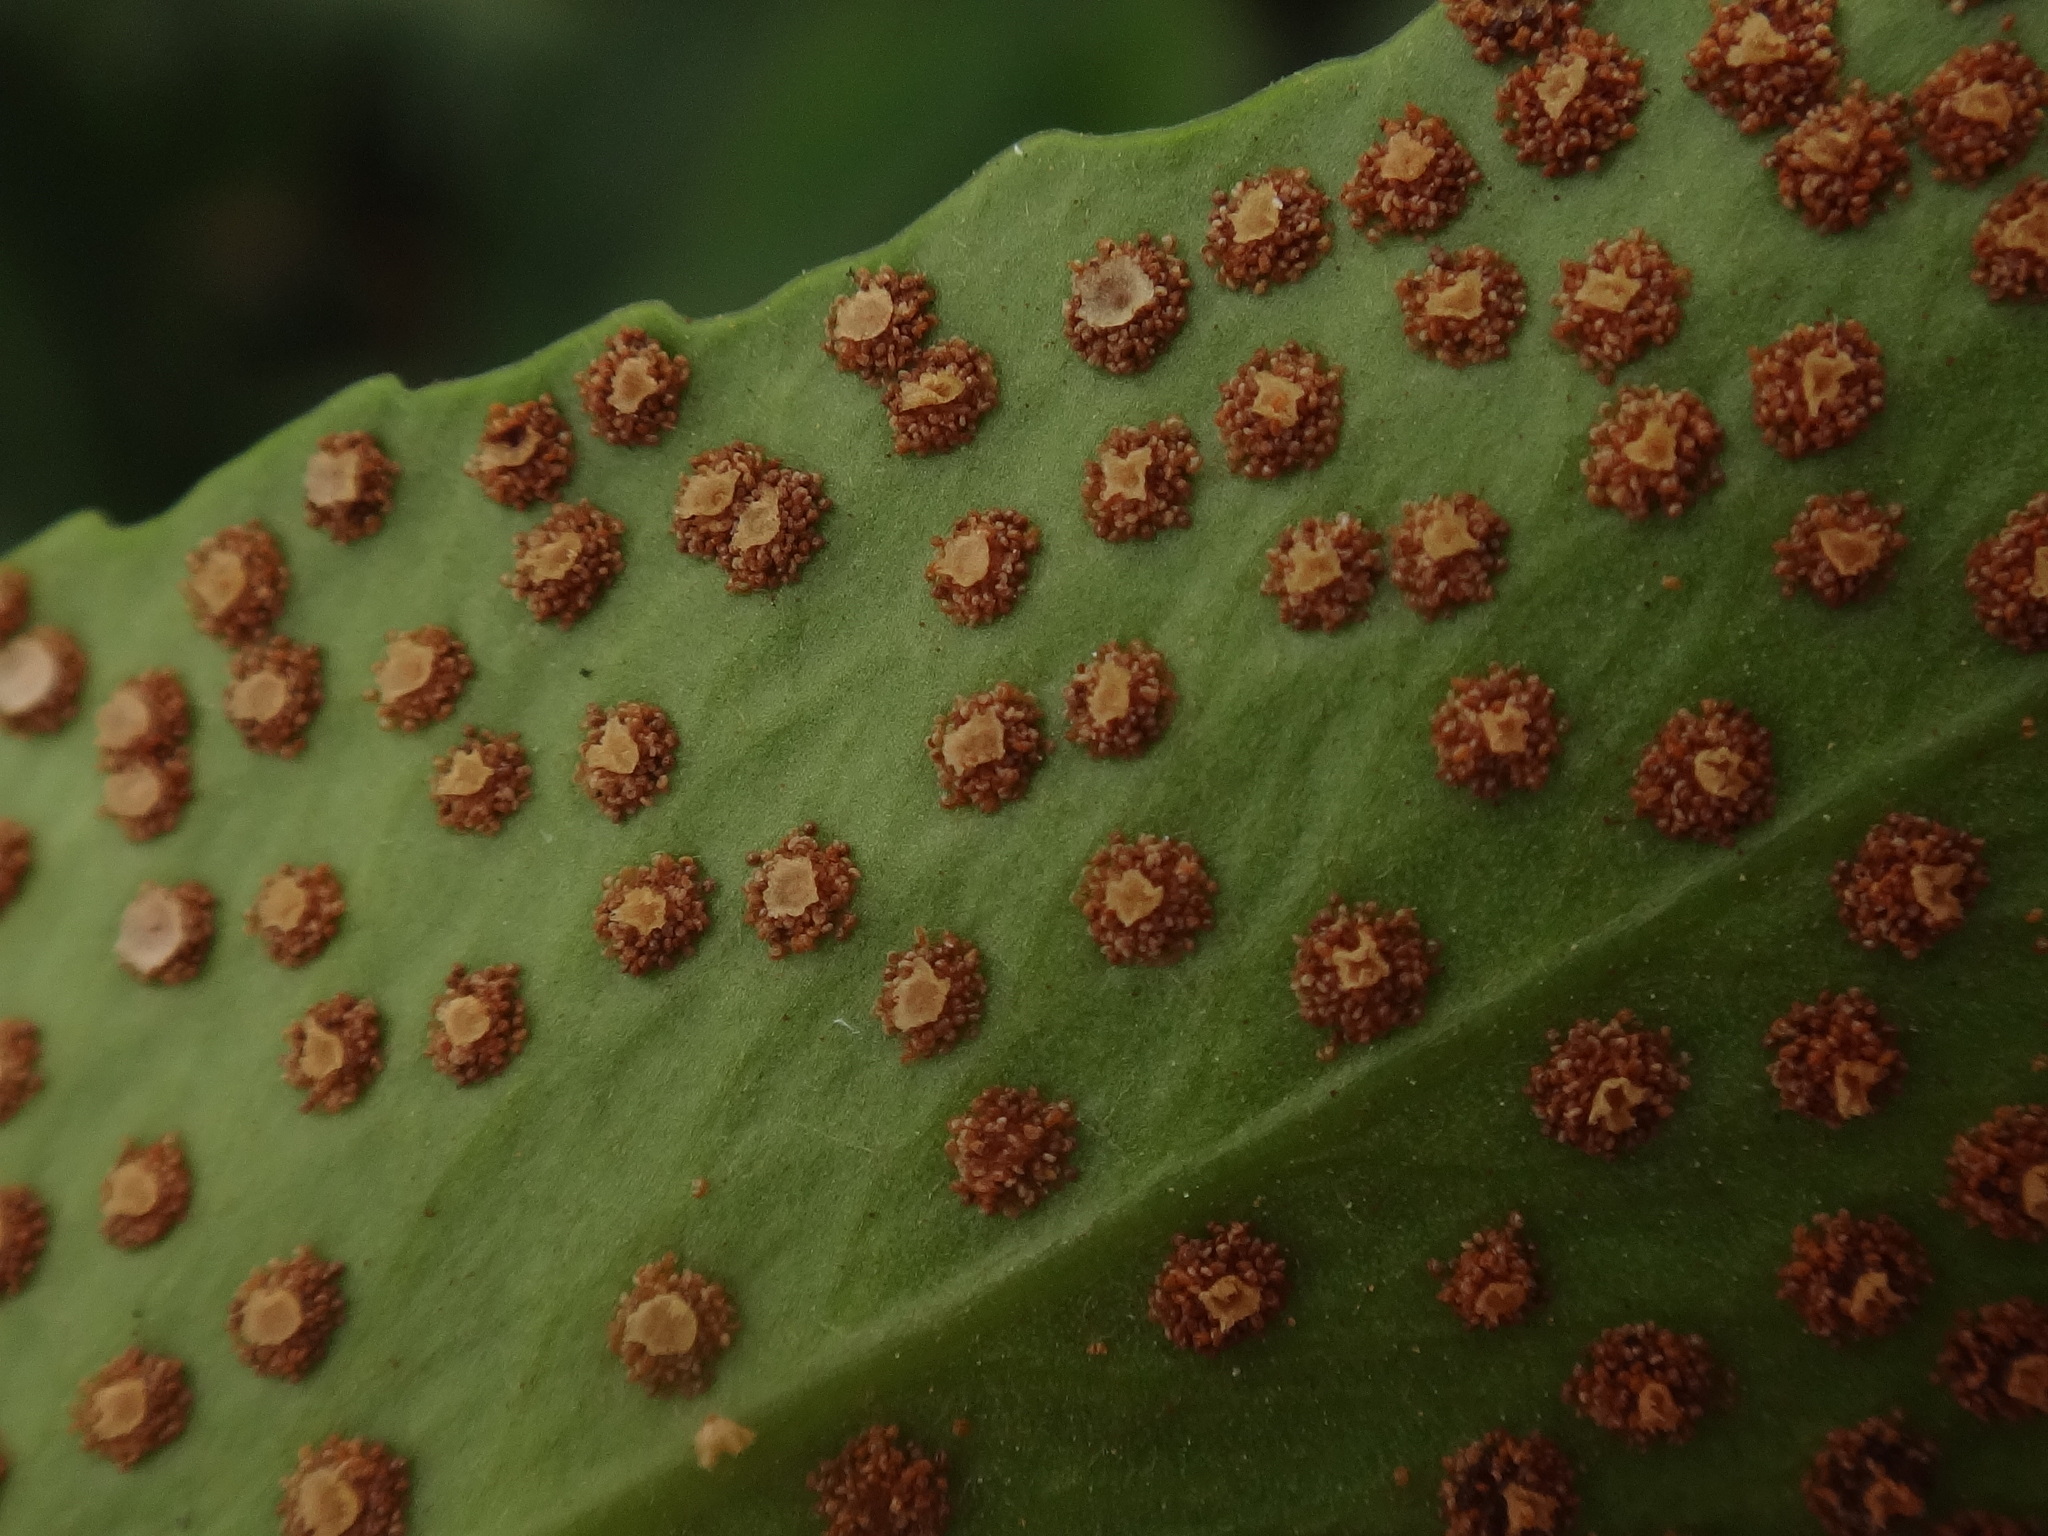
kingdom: Plantae
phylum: Tracheophyta
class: Polypodiopsida
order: Polypodiales
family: Dryopteridaceae
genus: Cyrtomium
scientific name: Cyrtomium falcatum
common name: House holly-fern
